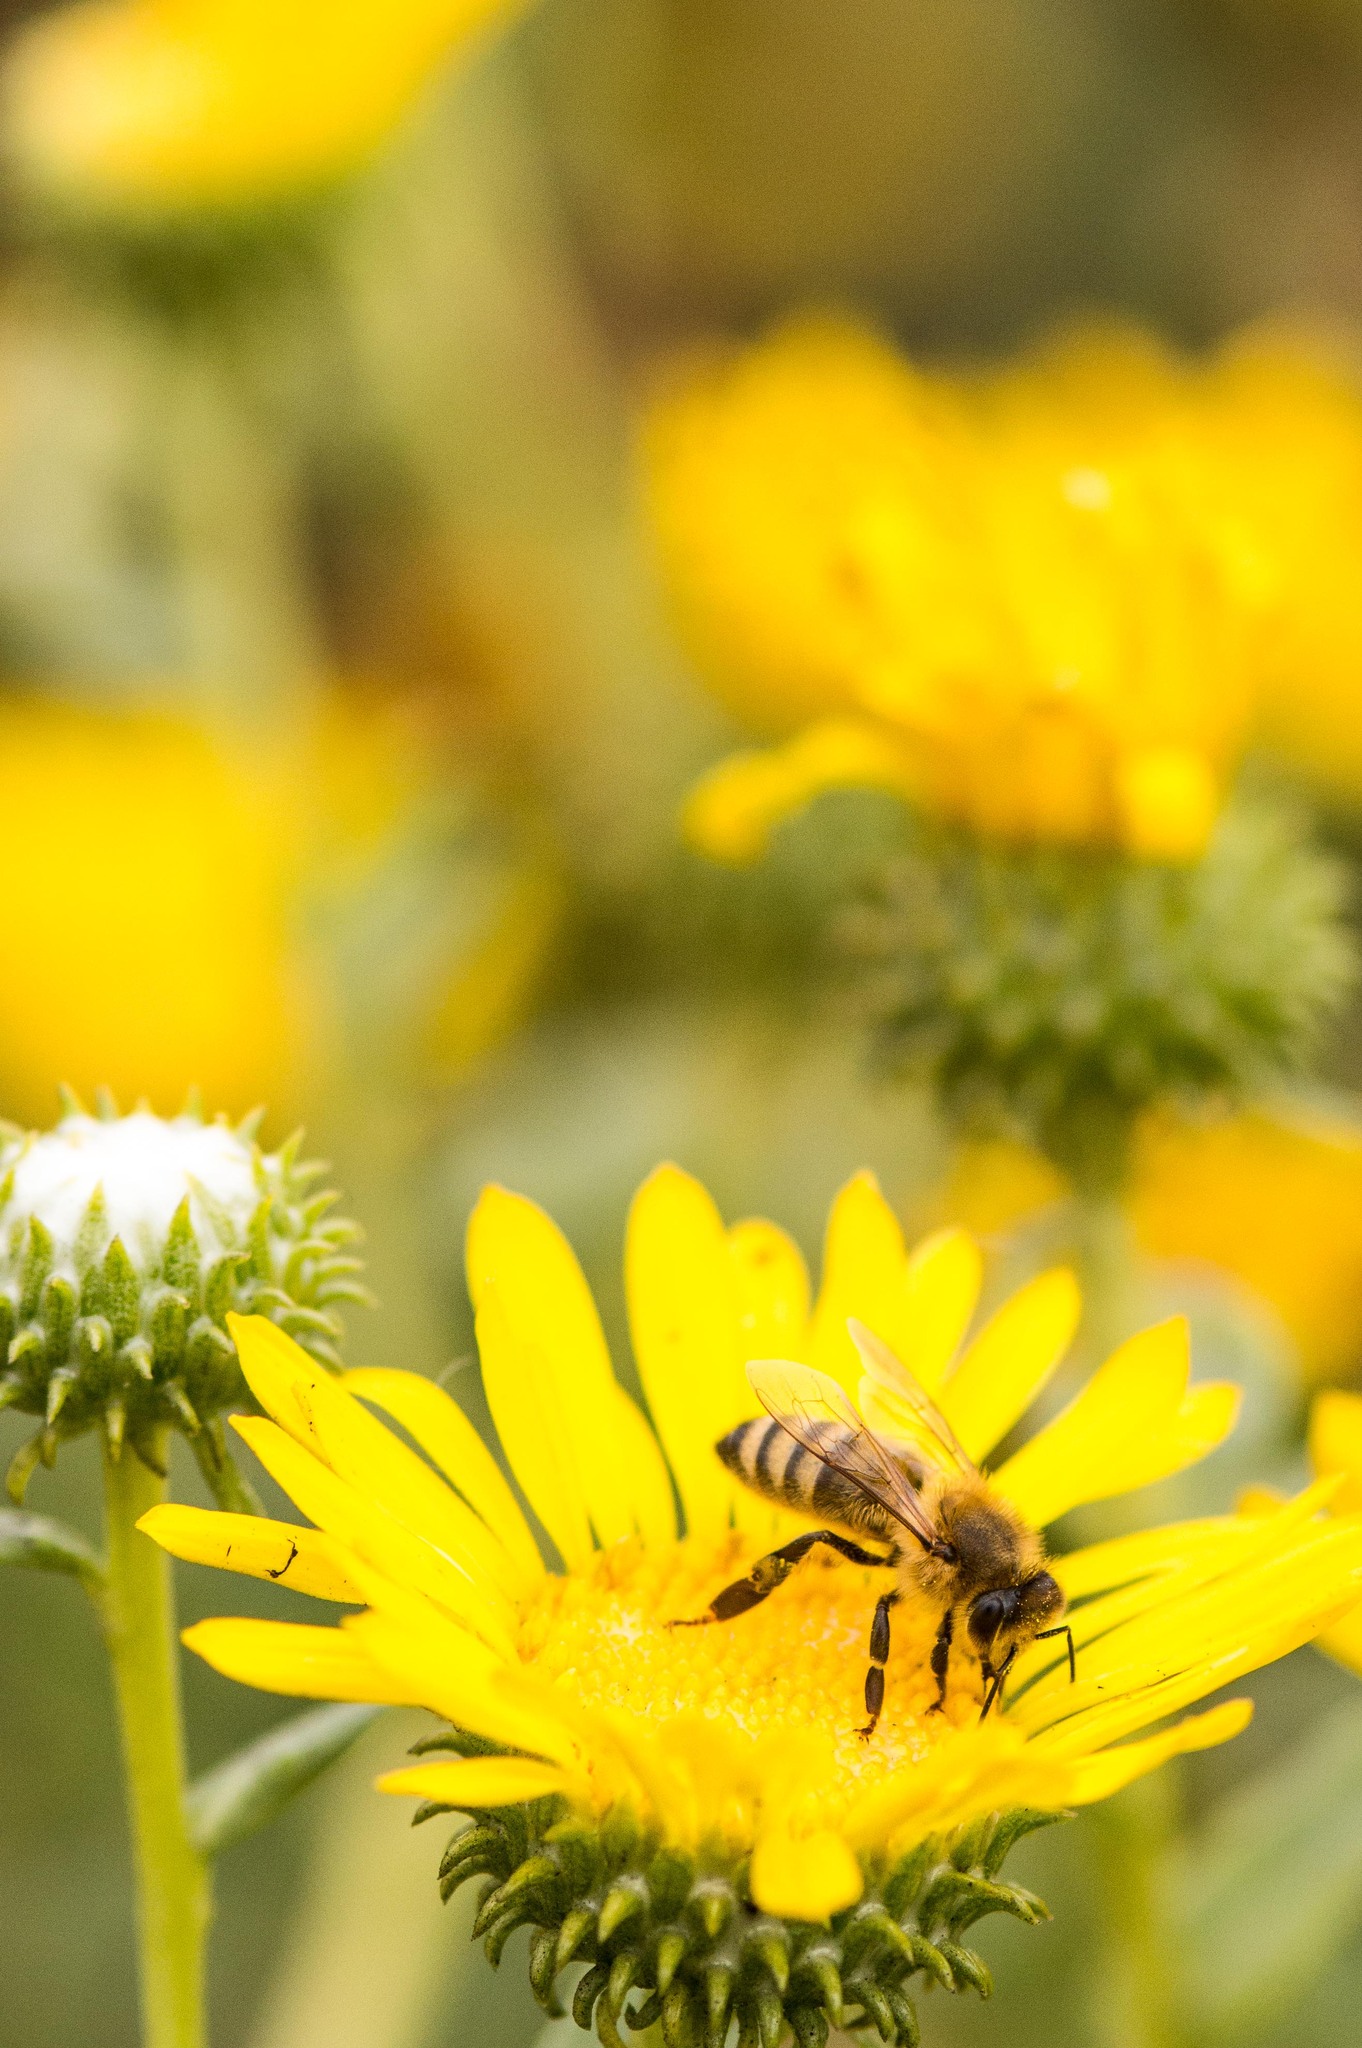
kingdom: Animalia
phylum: Arthropoda
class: Insecta
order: Hymenoptera
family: Apidae
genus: Apis
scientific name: Apis mellifera
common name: Honey bee
